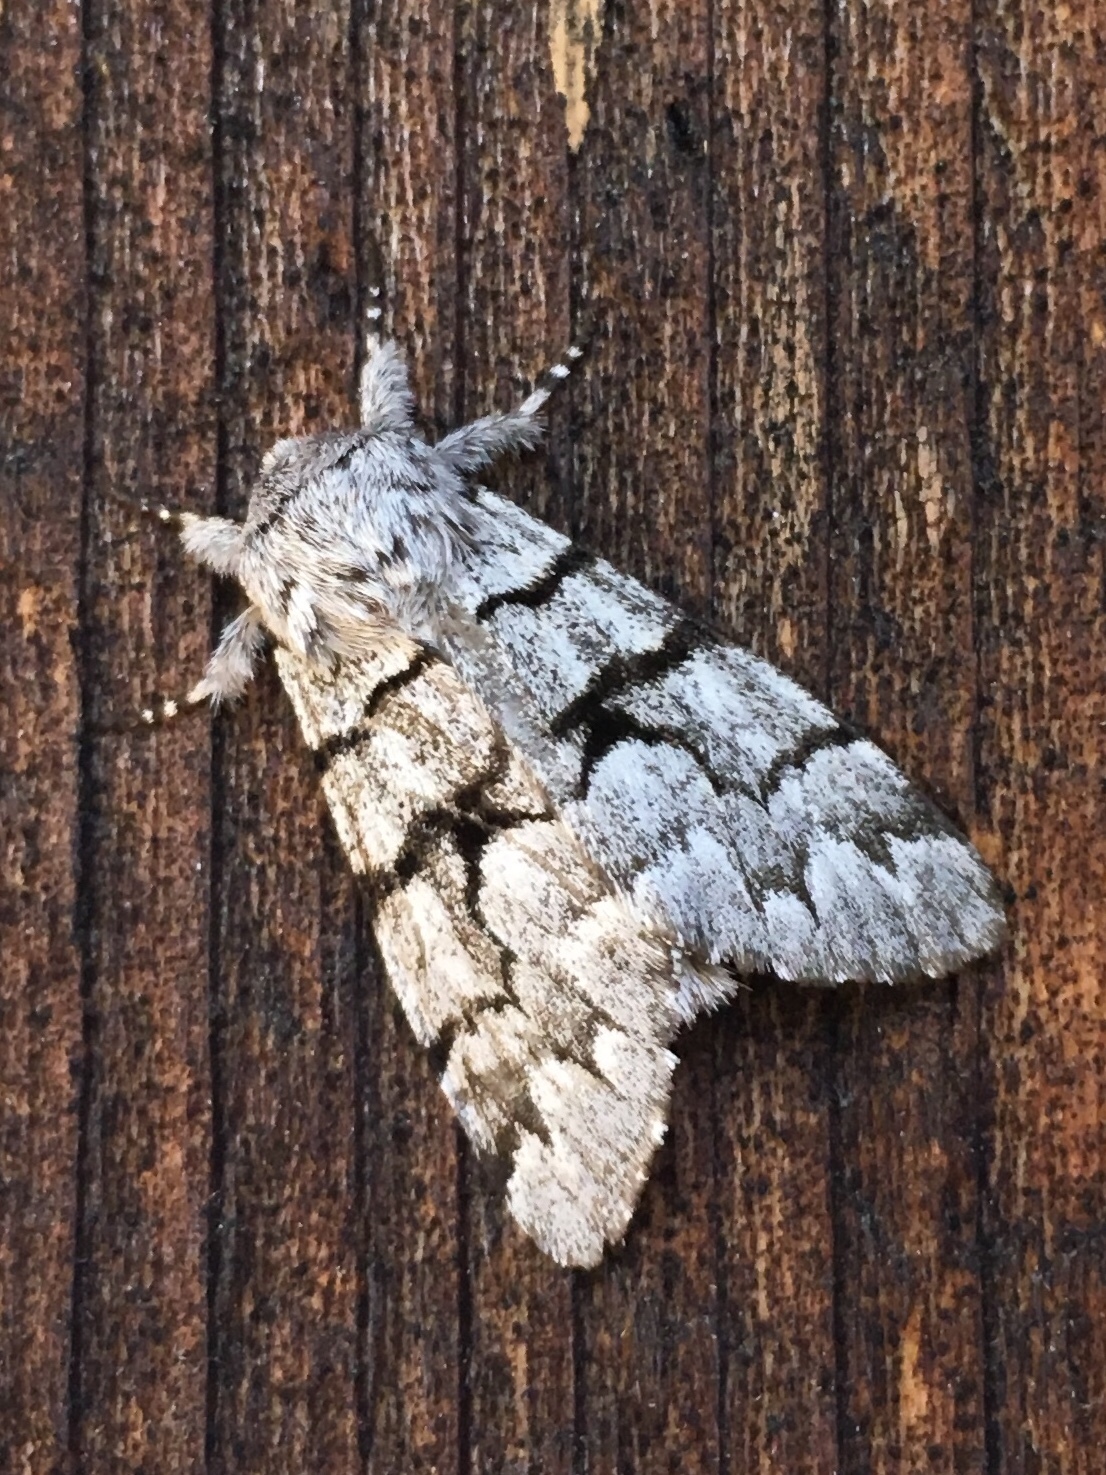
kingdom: Animalia
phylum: Arthropoda
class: Insecta
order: Lepidoptera
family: Noctuidae
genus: Panthea
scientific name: Panthea furcilla
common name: Eastern panthea moth
